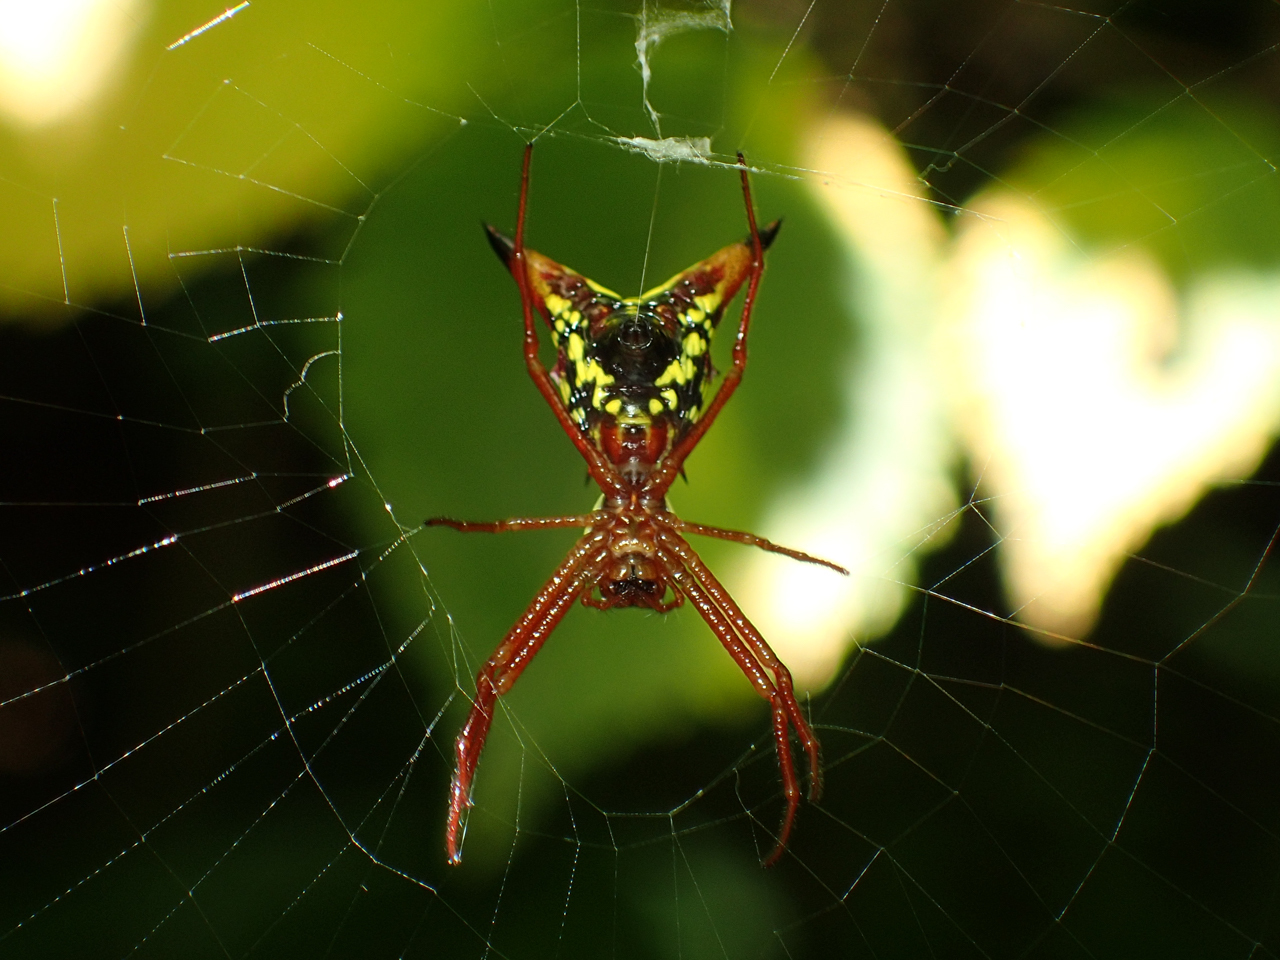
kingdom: Animalia
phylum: Arthropoda
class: Arachnida
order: Araneae
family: Araneidae
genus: Micrathena
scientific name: Micrathena sagittata
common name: Orb weavers
